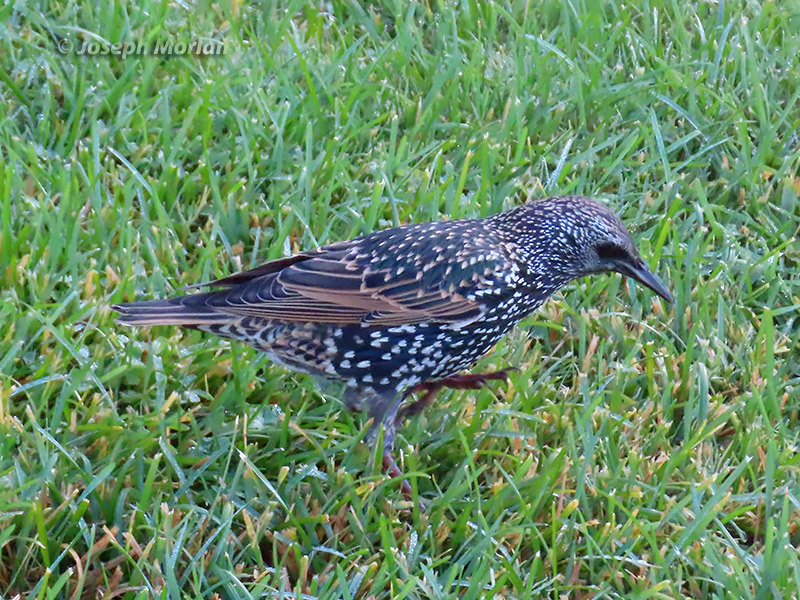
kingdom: Animalia
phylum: Chordata
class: Aves
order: Passeriformes
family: Sturnidae
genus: Sturnus
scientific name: Sturnus vulgaris
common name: Common starling
